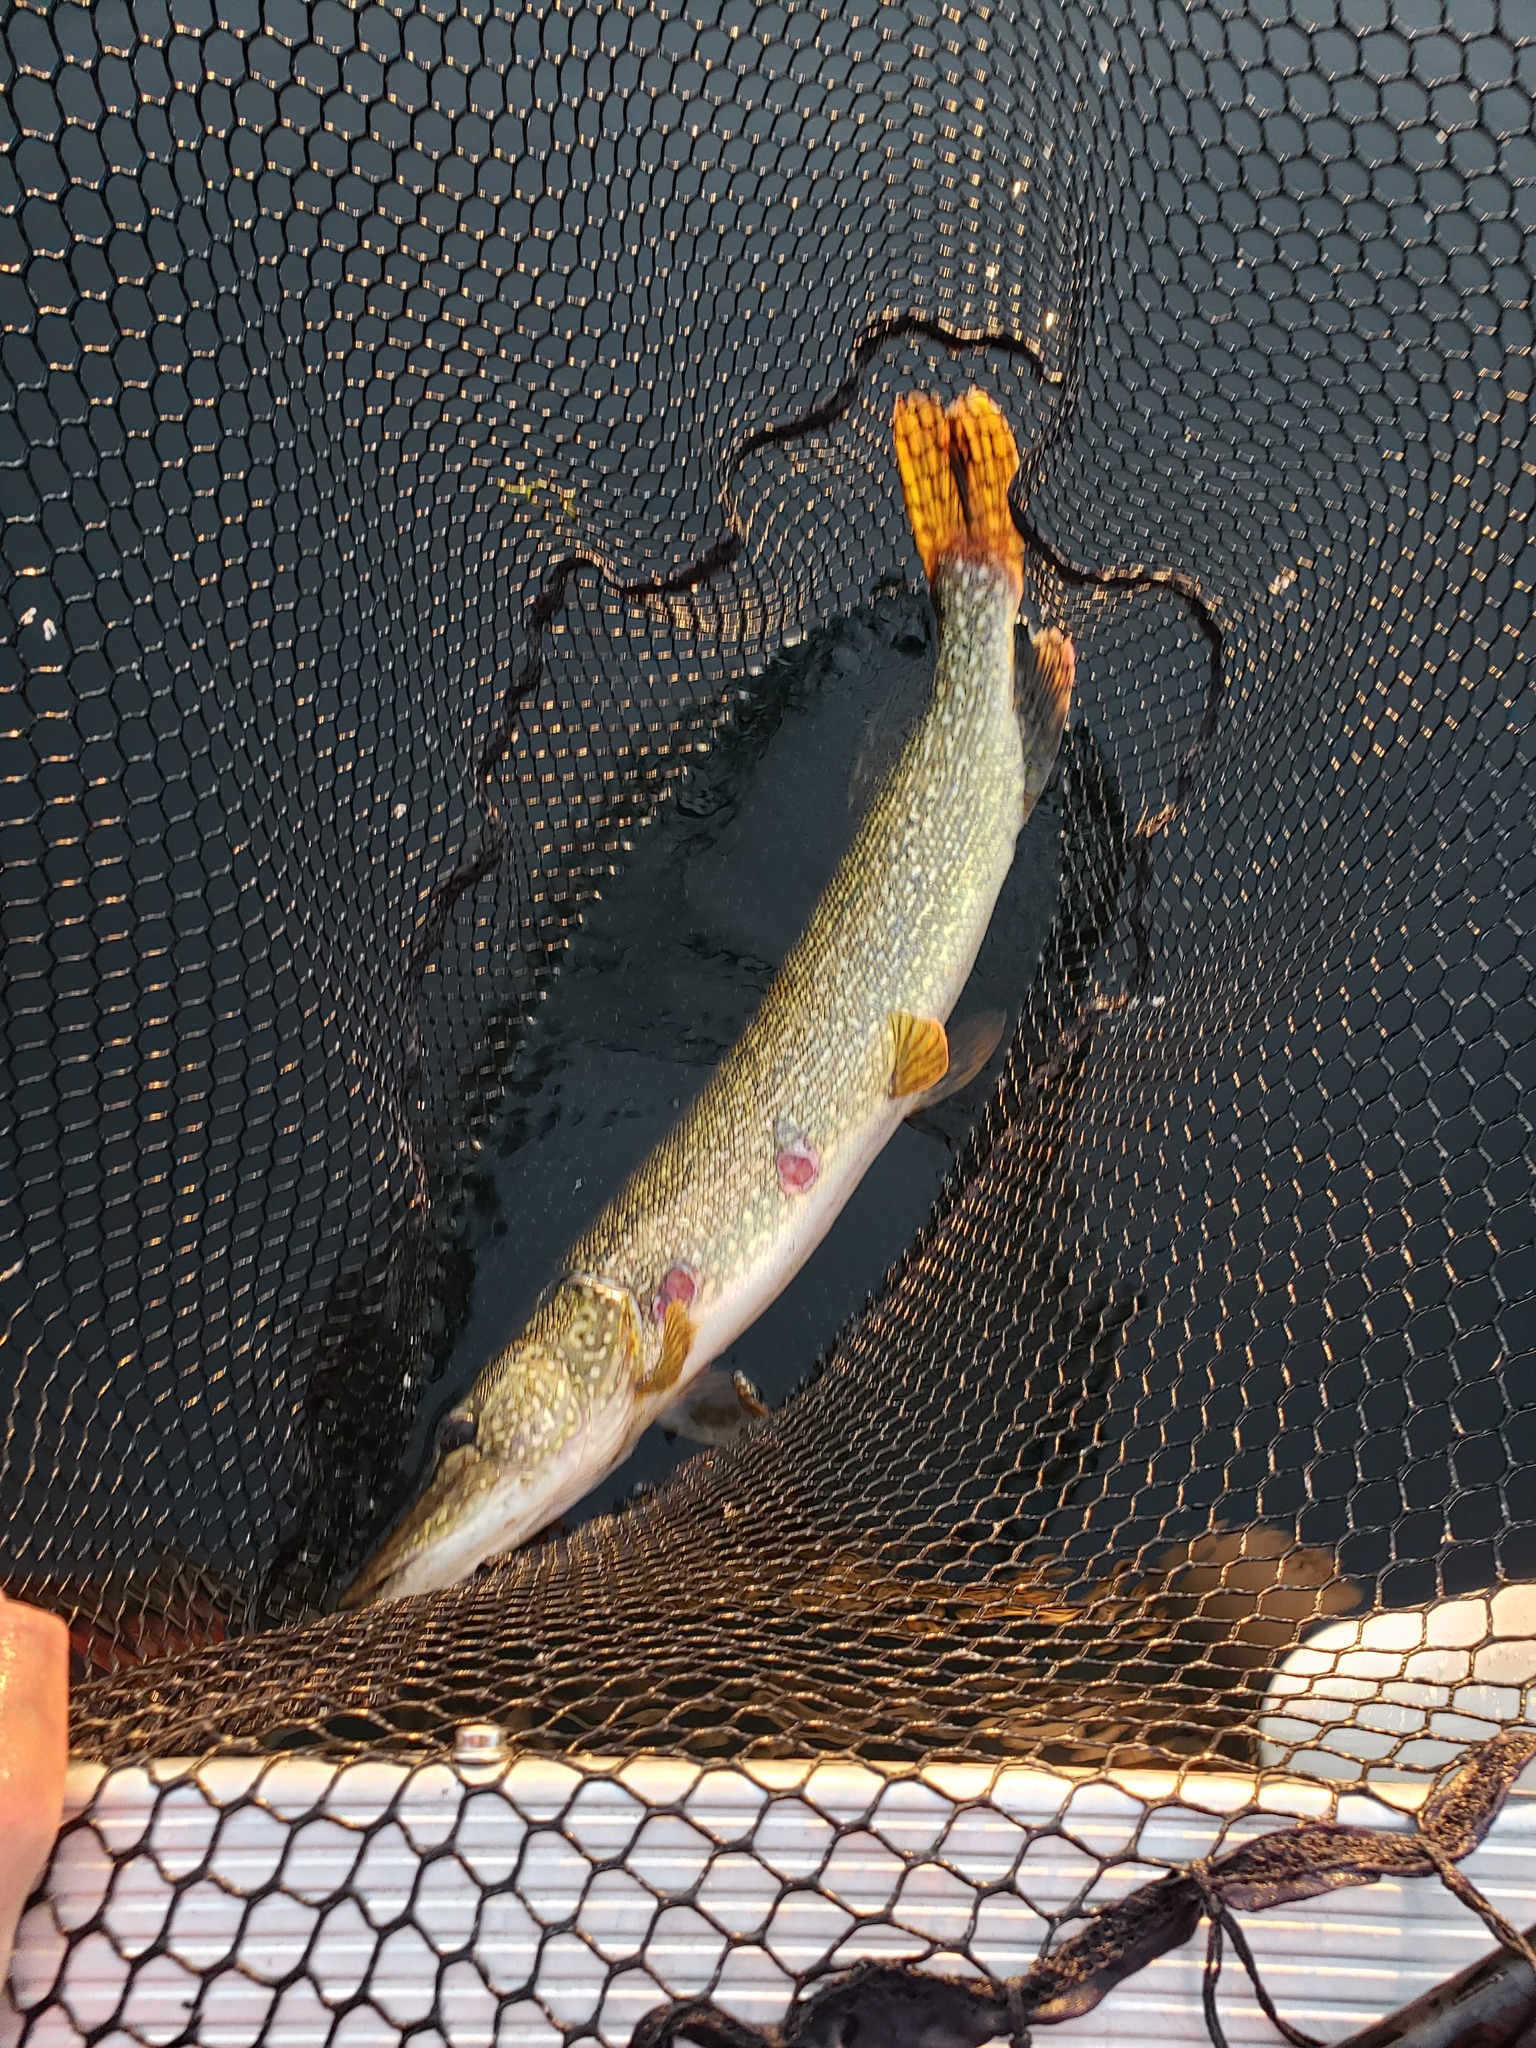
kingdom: Animalia
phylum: Chordata
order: Esociformes
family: Esocidae
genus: Esox
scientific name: Esox lucius
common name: Northern pike
